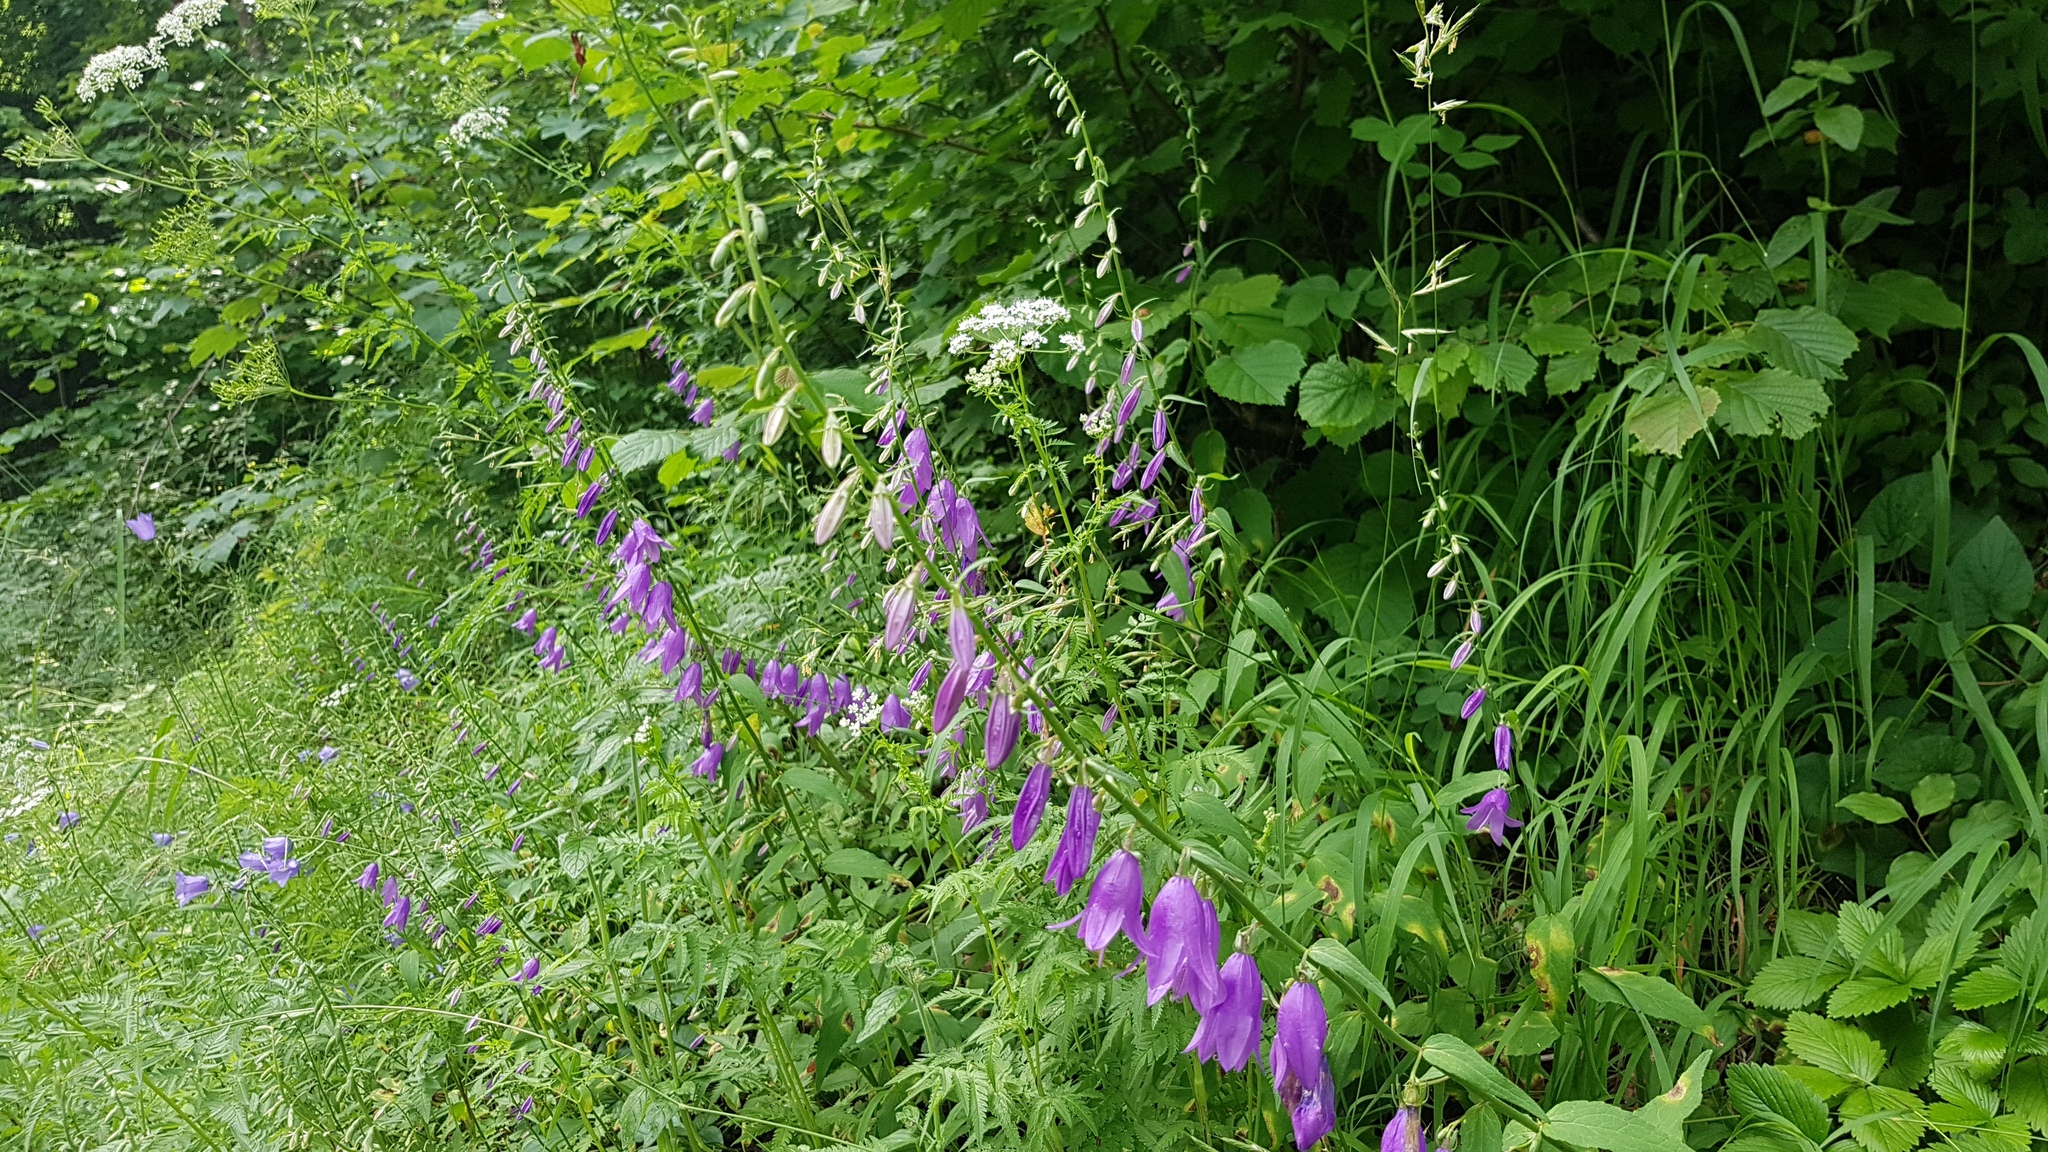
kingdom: Plantae
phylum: Tracheophyta
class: Magnoliopsida
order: Asterales
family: Campanulaceae
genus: Campanula
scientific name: Campanula rapunculoides
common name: Creeping bellflower
